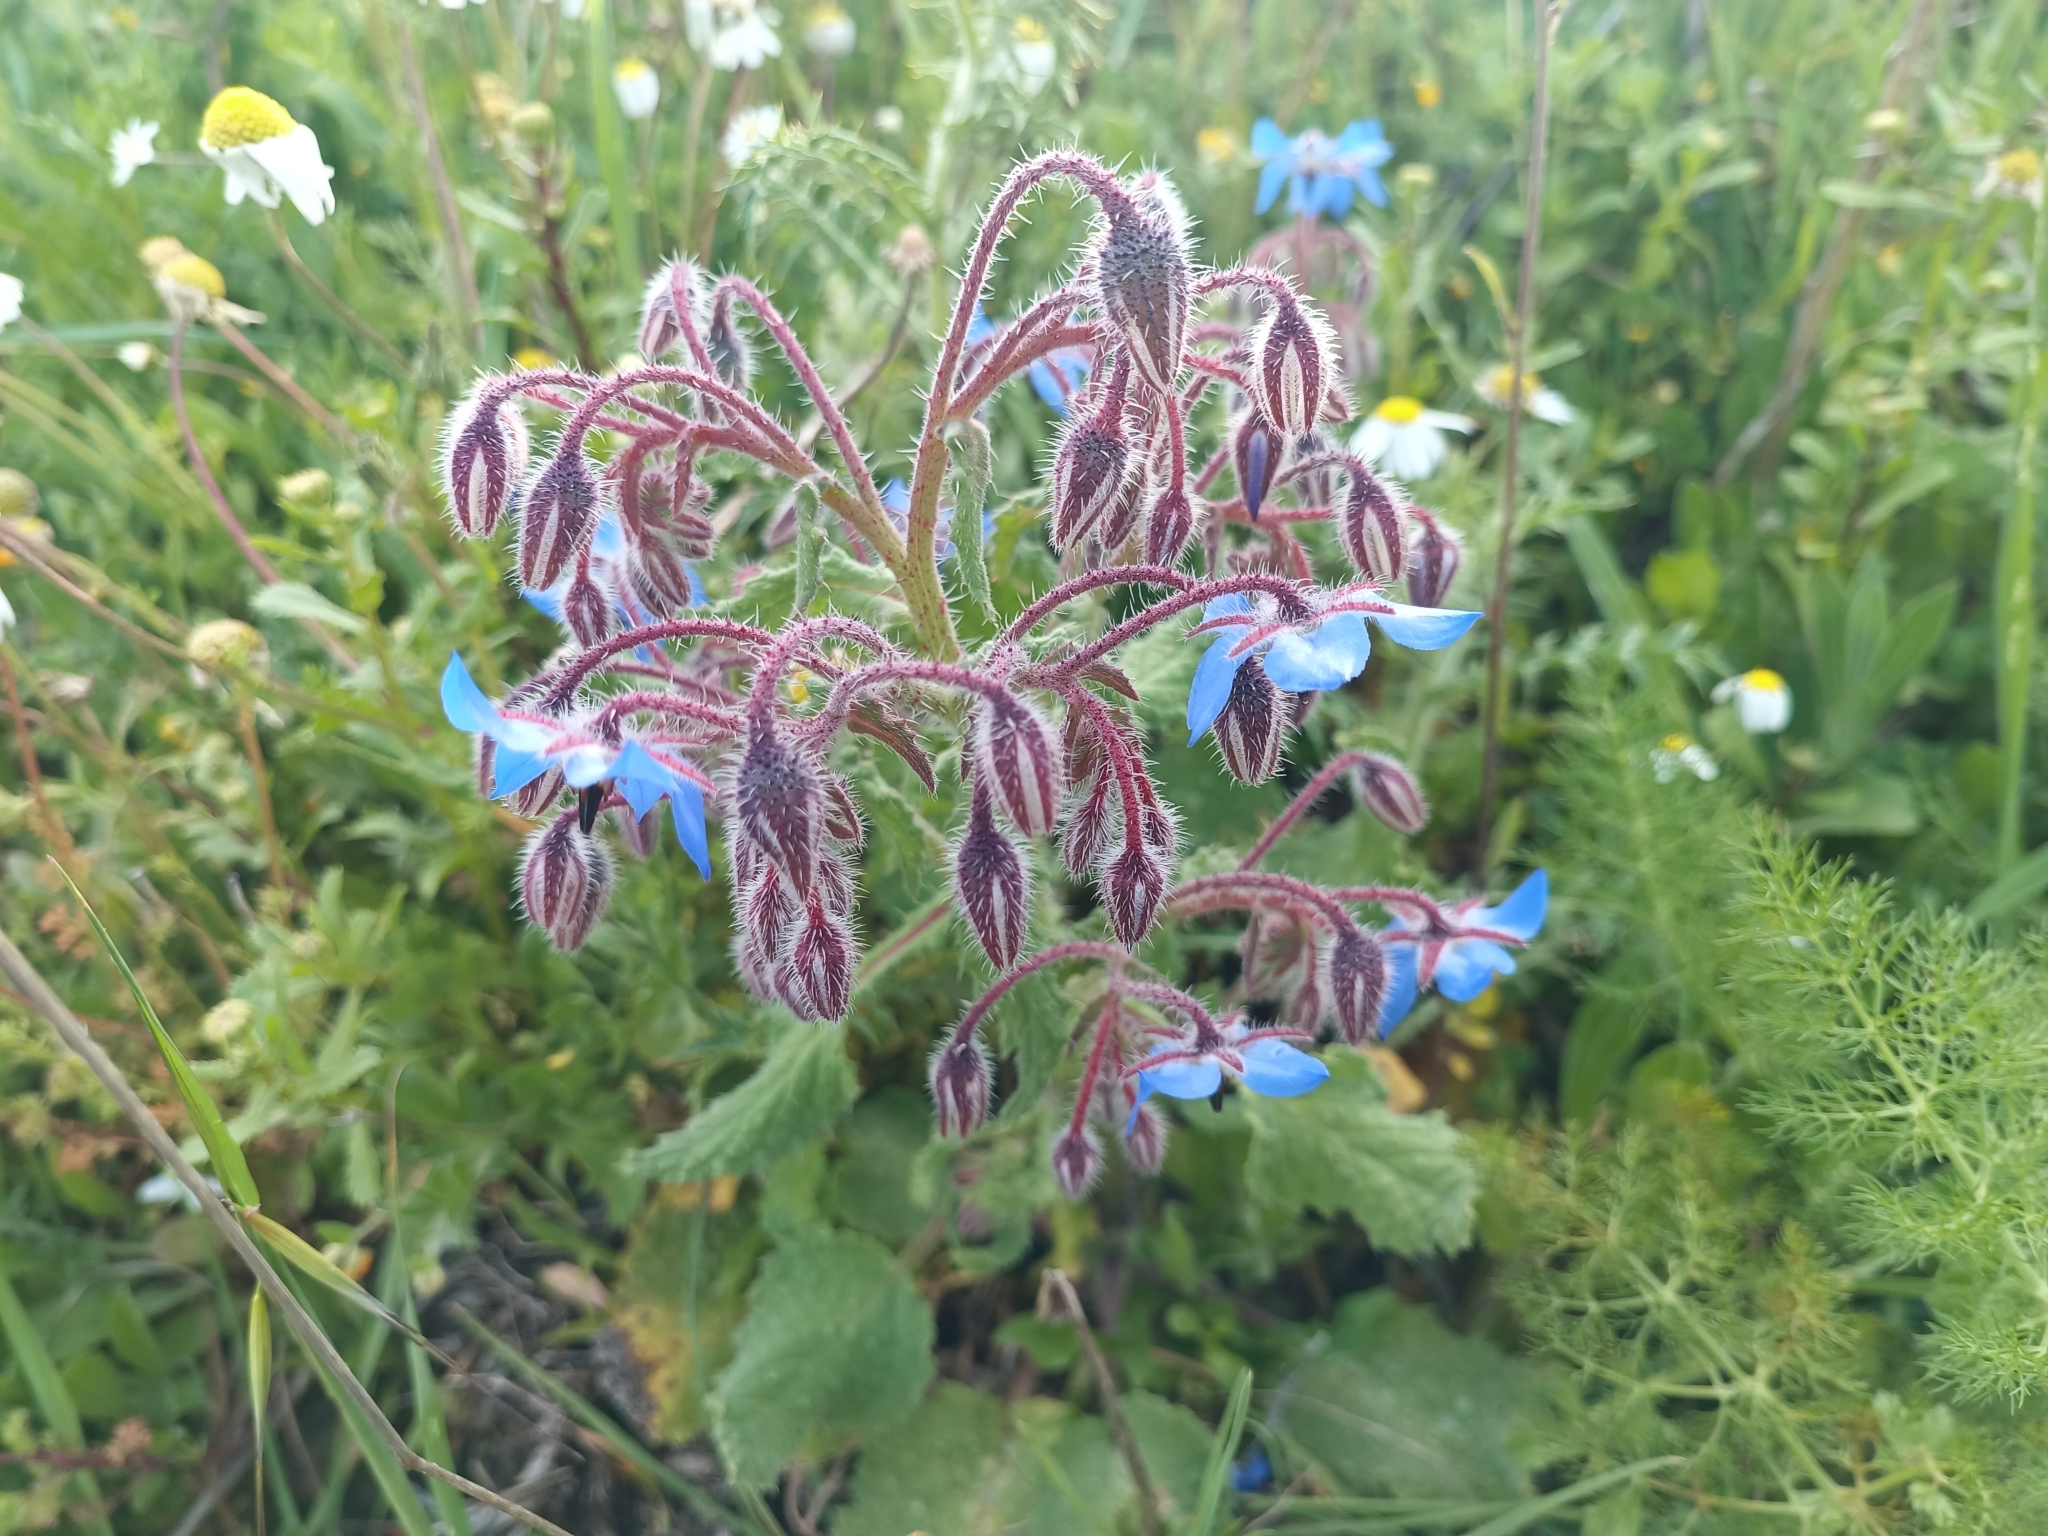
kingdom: Plantae
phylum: Tracheophyta
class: Magnoliopsida
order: Boraginales
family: Boraginaceae
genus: Borago
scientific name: Borago officinalis
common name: Borage
